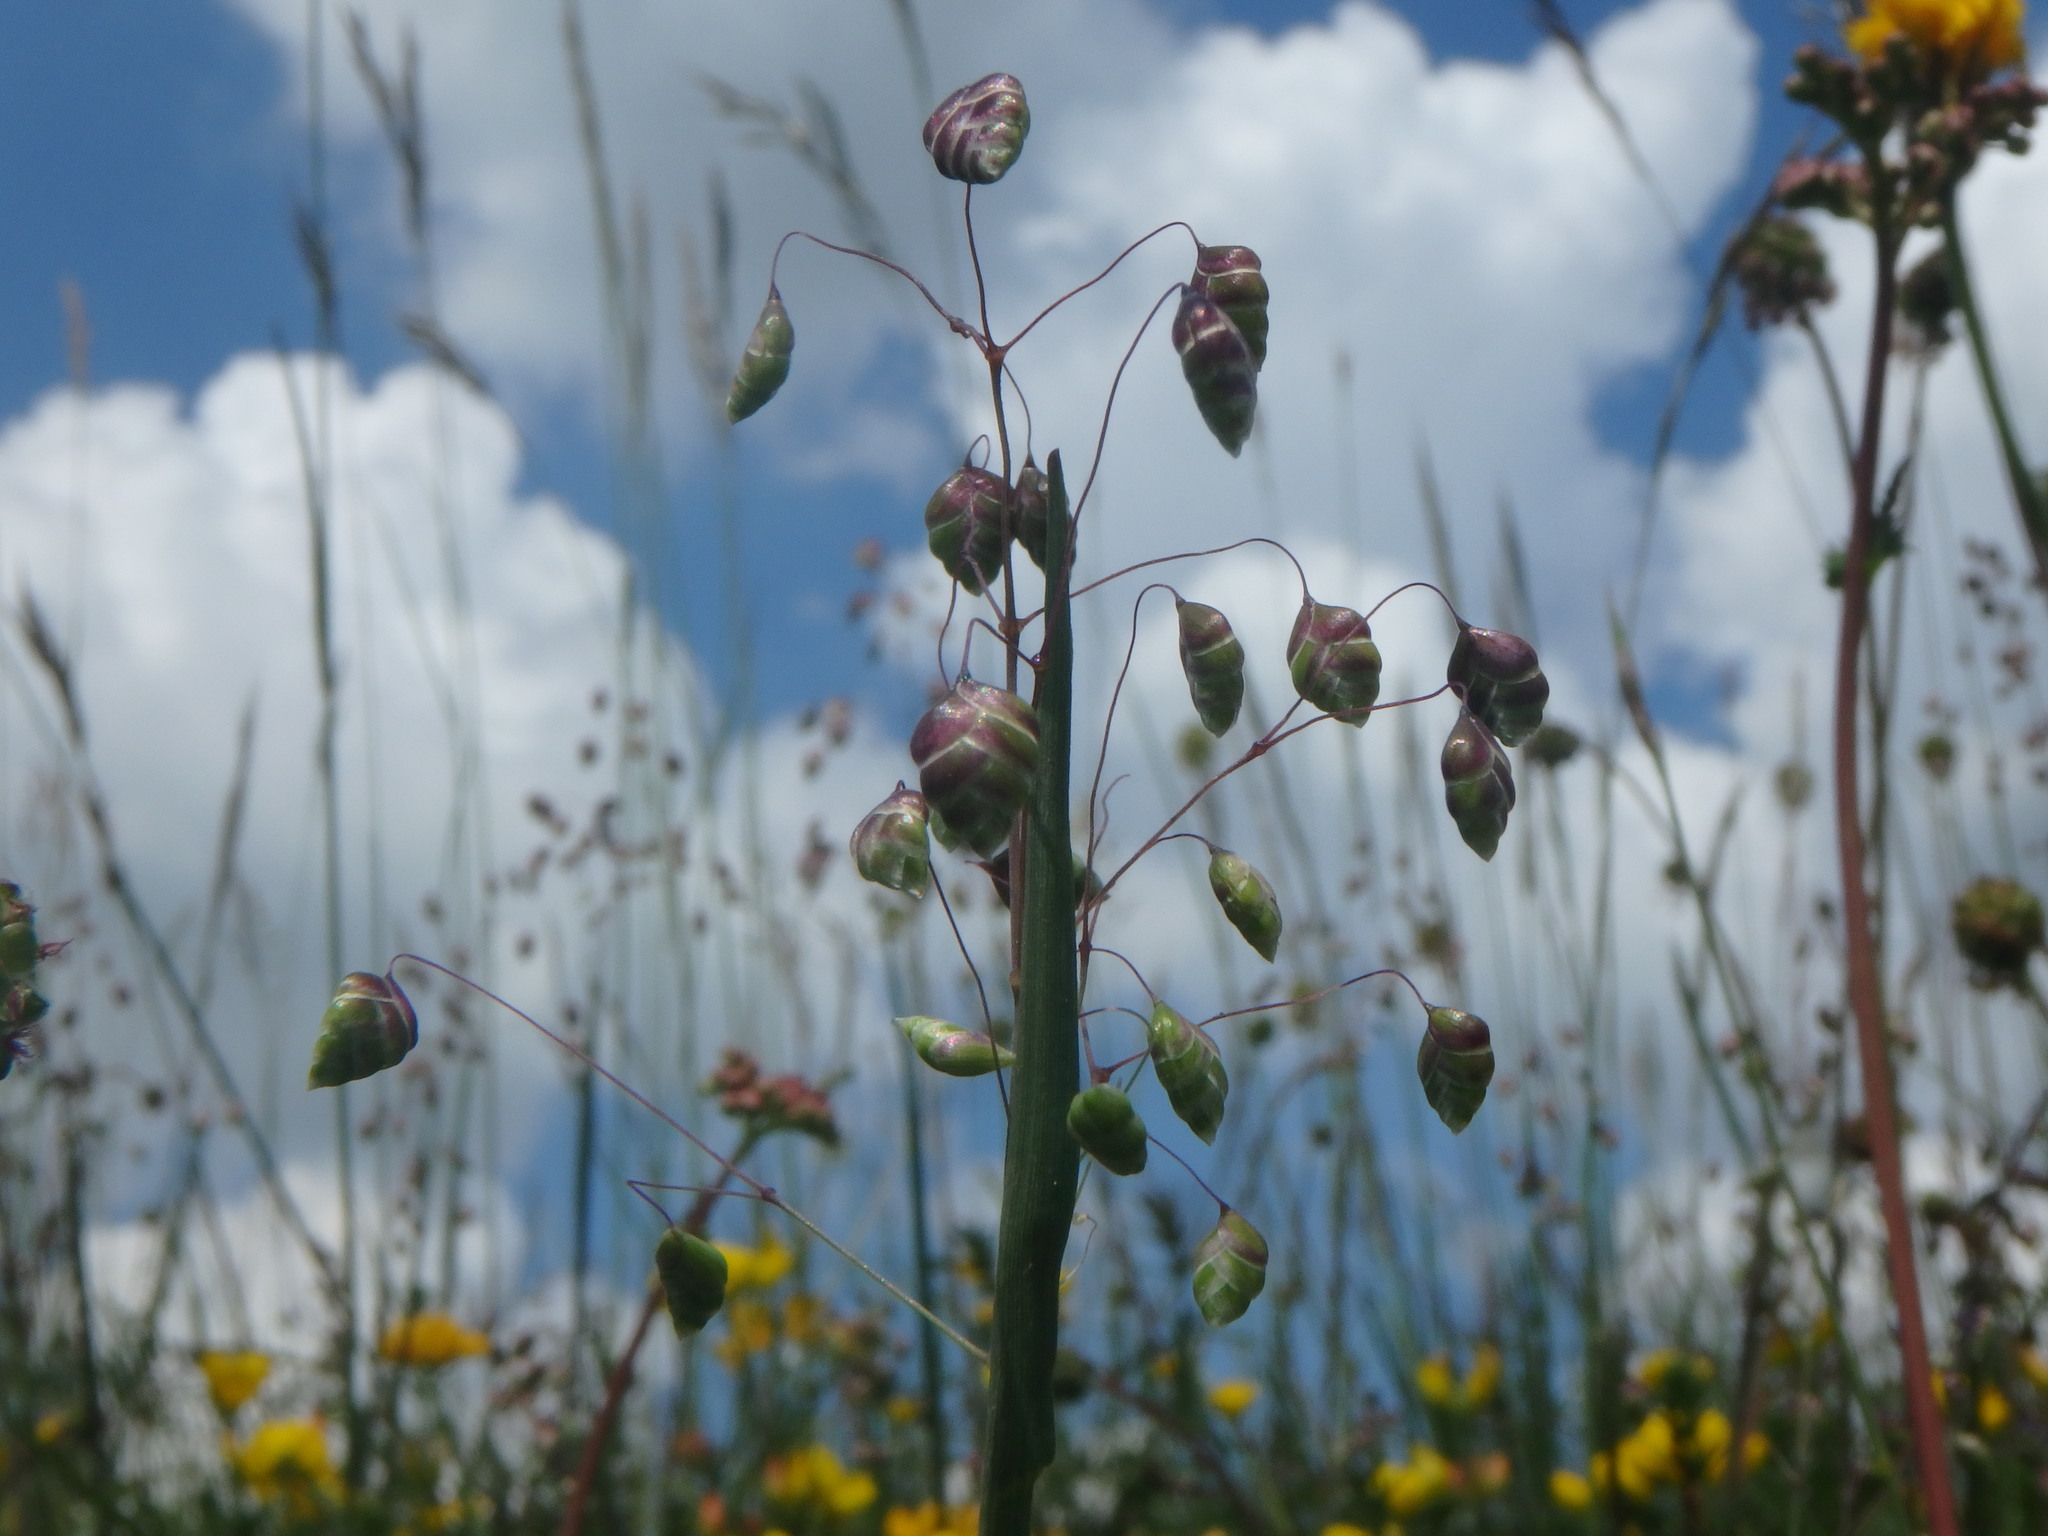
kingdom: Plantae
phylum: Tracheophyta
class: Liliopsida
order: Poales
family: Poaceae
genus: Briza
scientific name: Briza media
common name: Quaking grass
